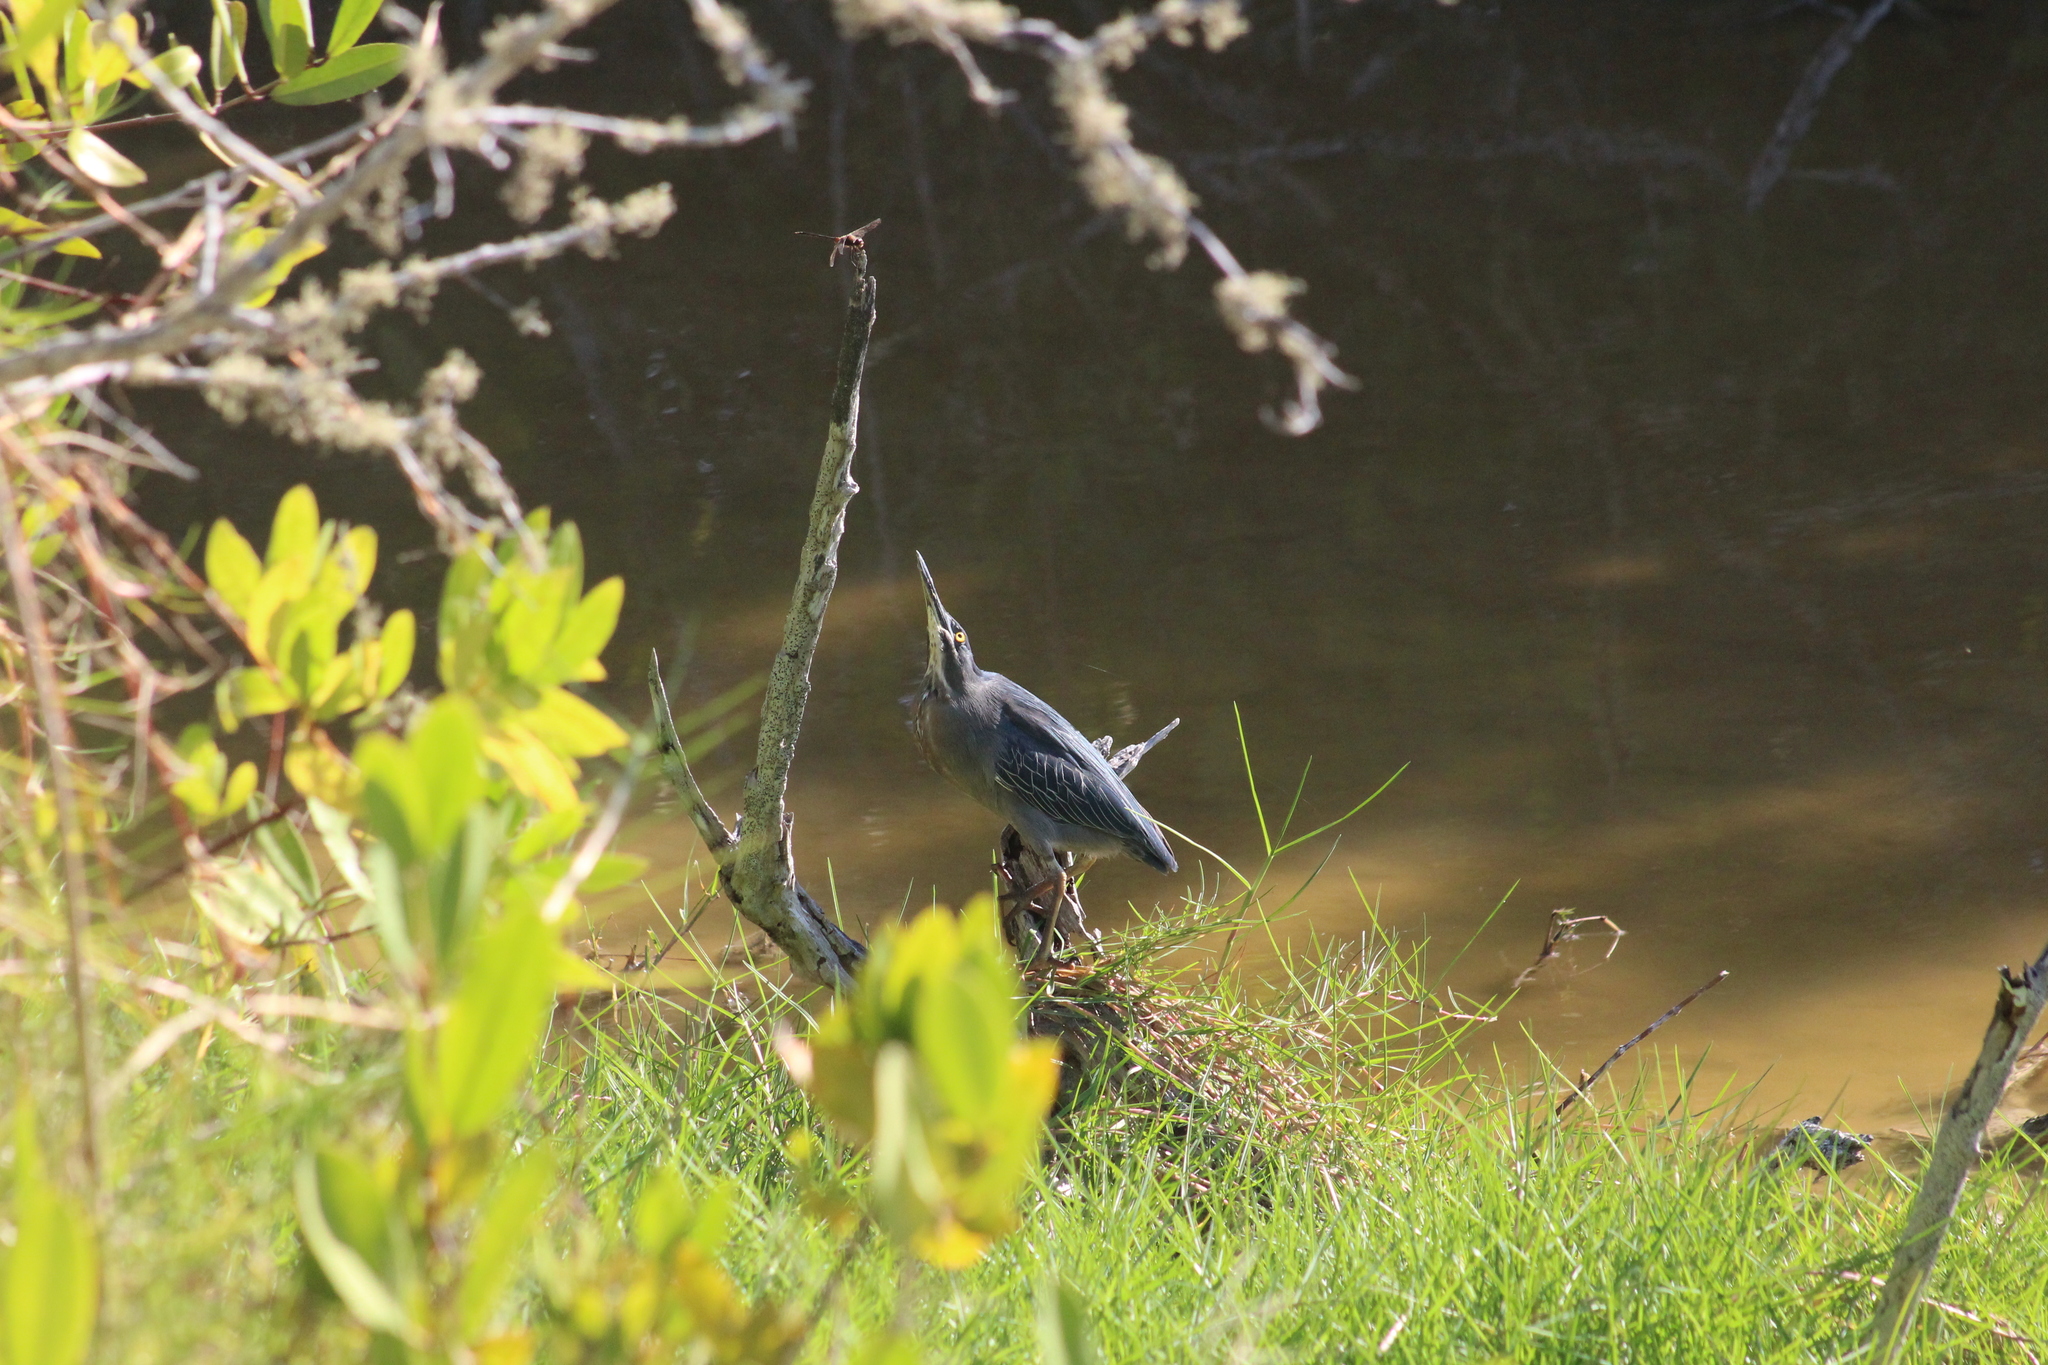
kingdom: Animalia
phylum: Chordata
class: Aves
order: Pelecaniformes
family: Ardeidae
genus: Butorides
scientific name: Butorides striata
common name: Striated heron
